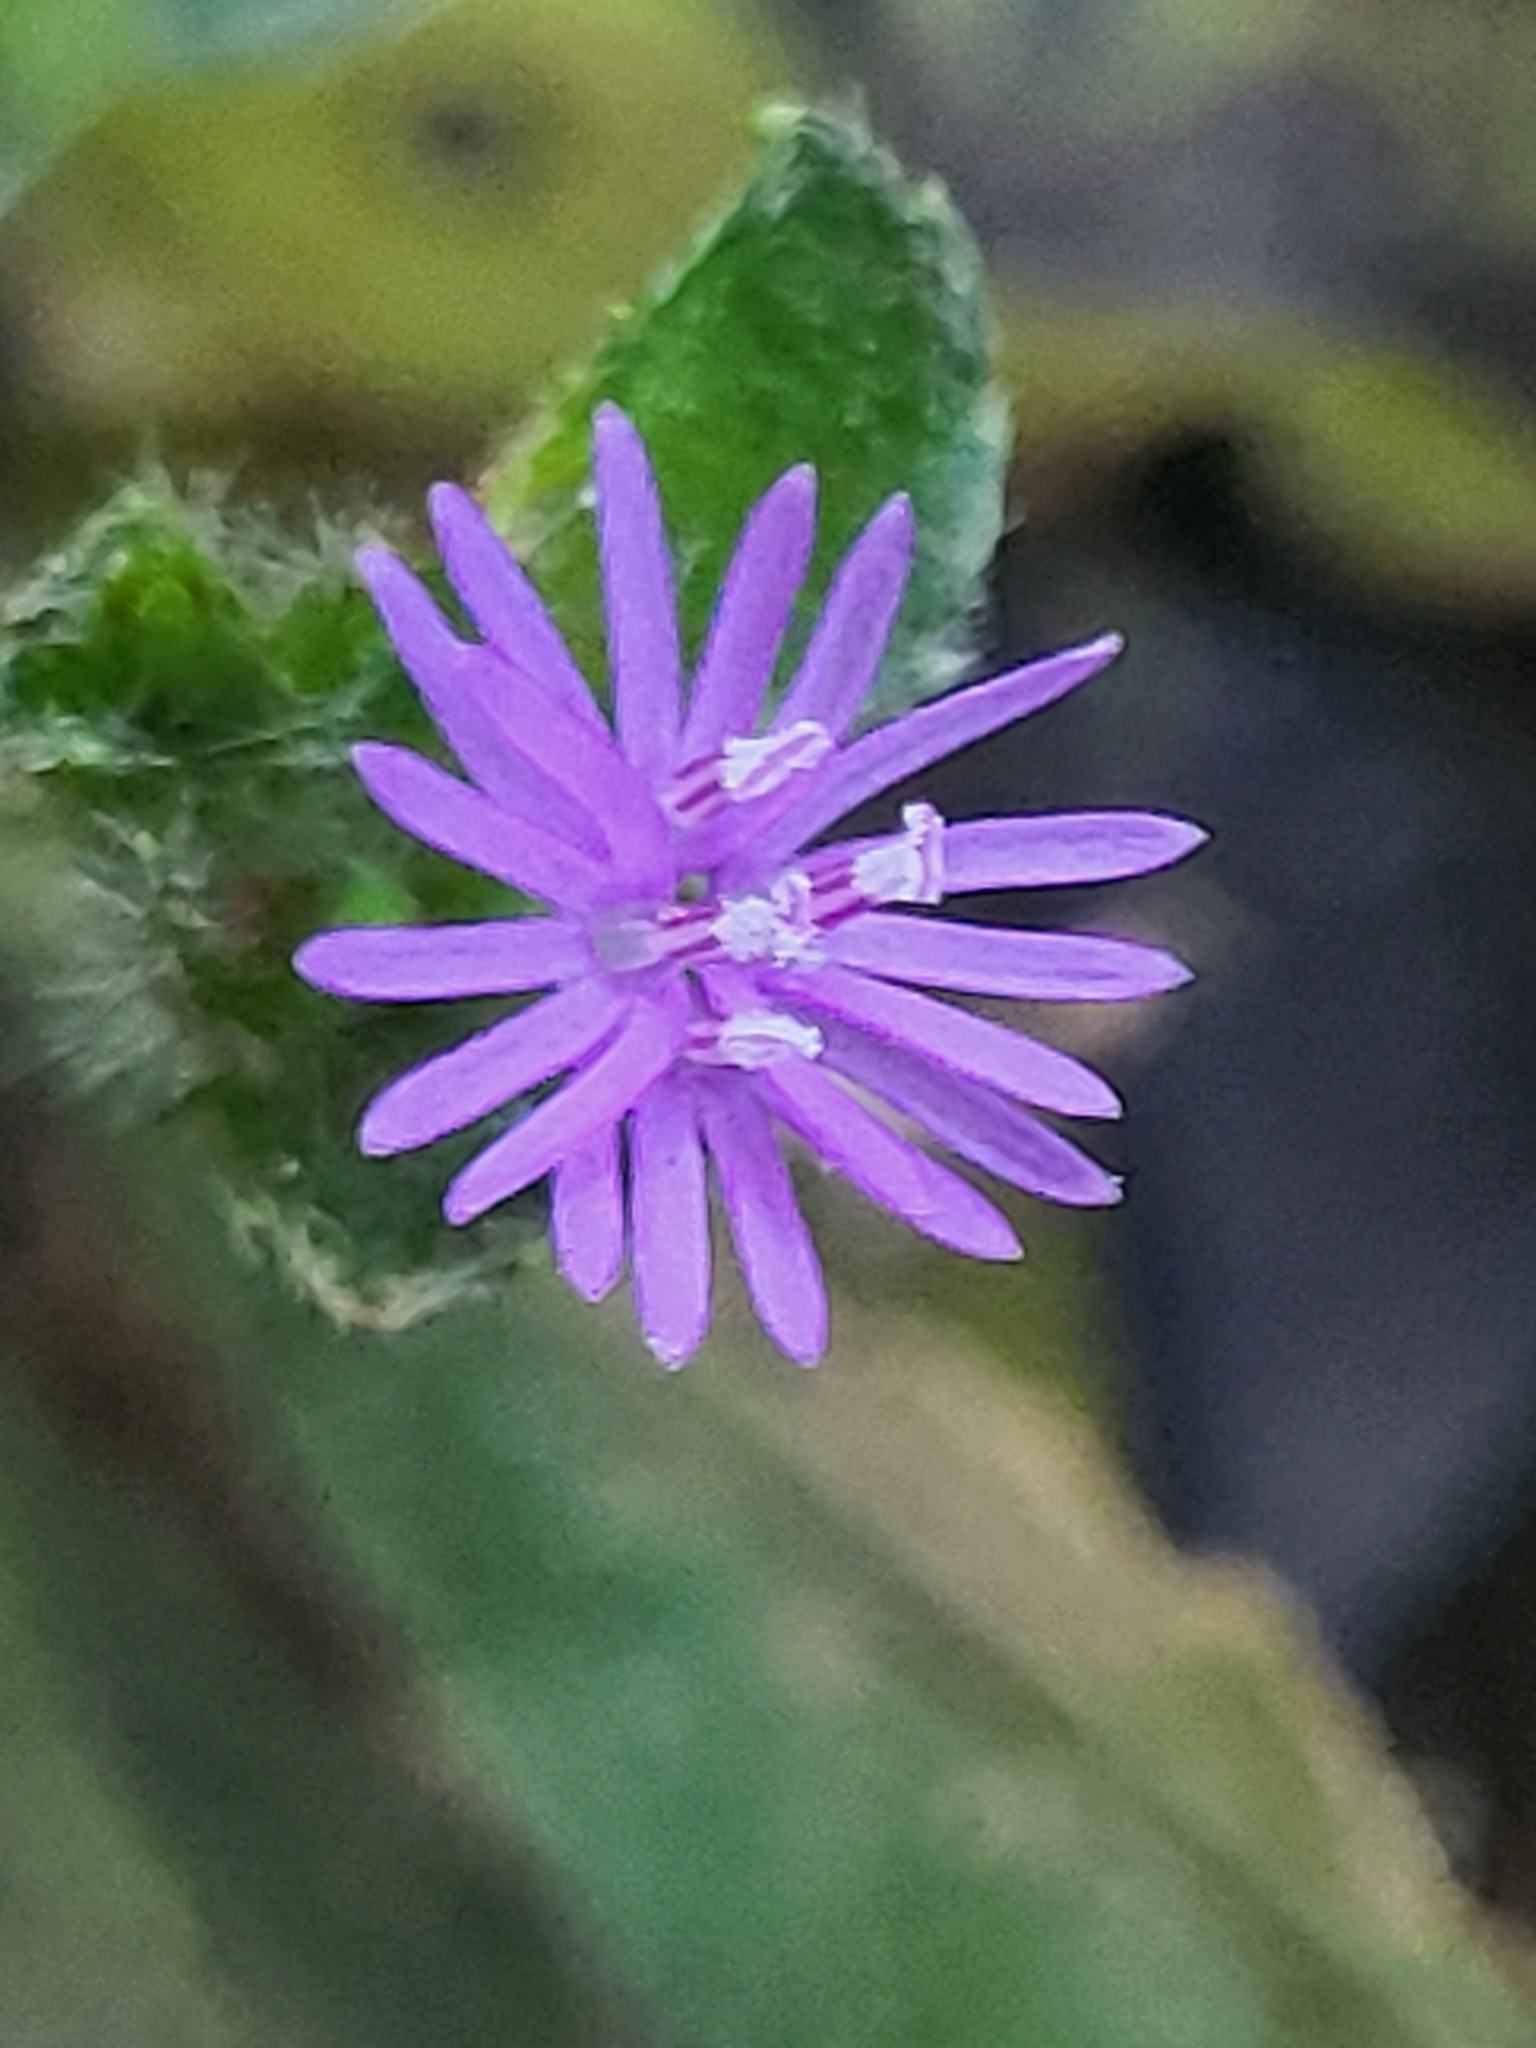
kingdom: Plantae
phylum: Tracheophyta
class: Magnoliopsida
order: Asterales
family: Asteraceae
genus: Elephantopus
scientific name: Elephantopus scaber
